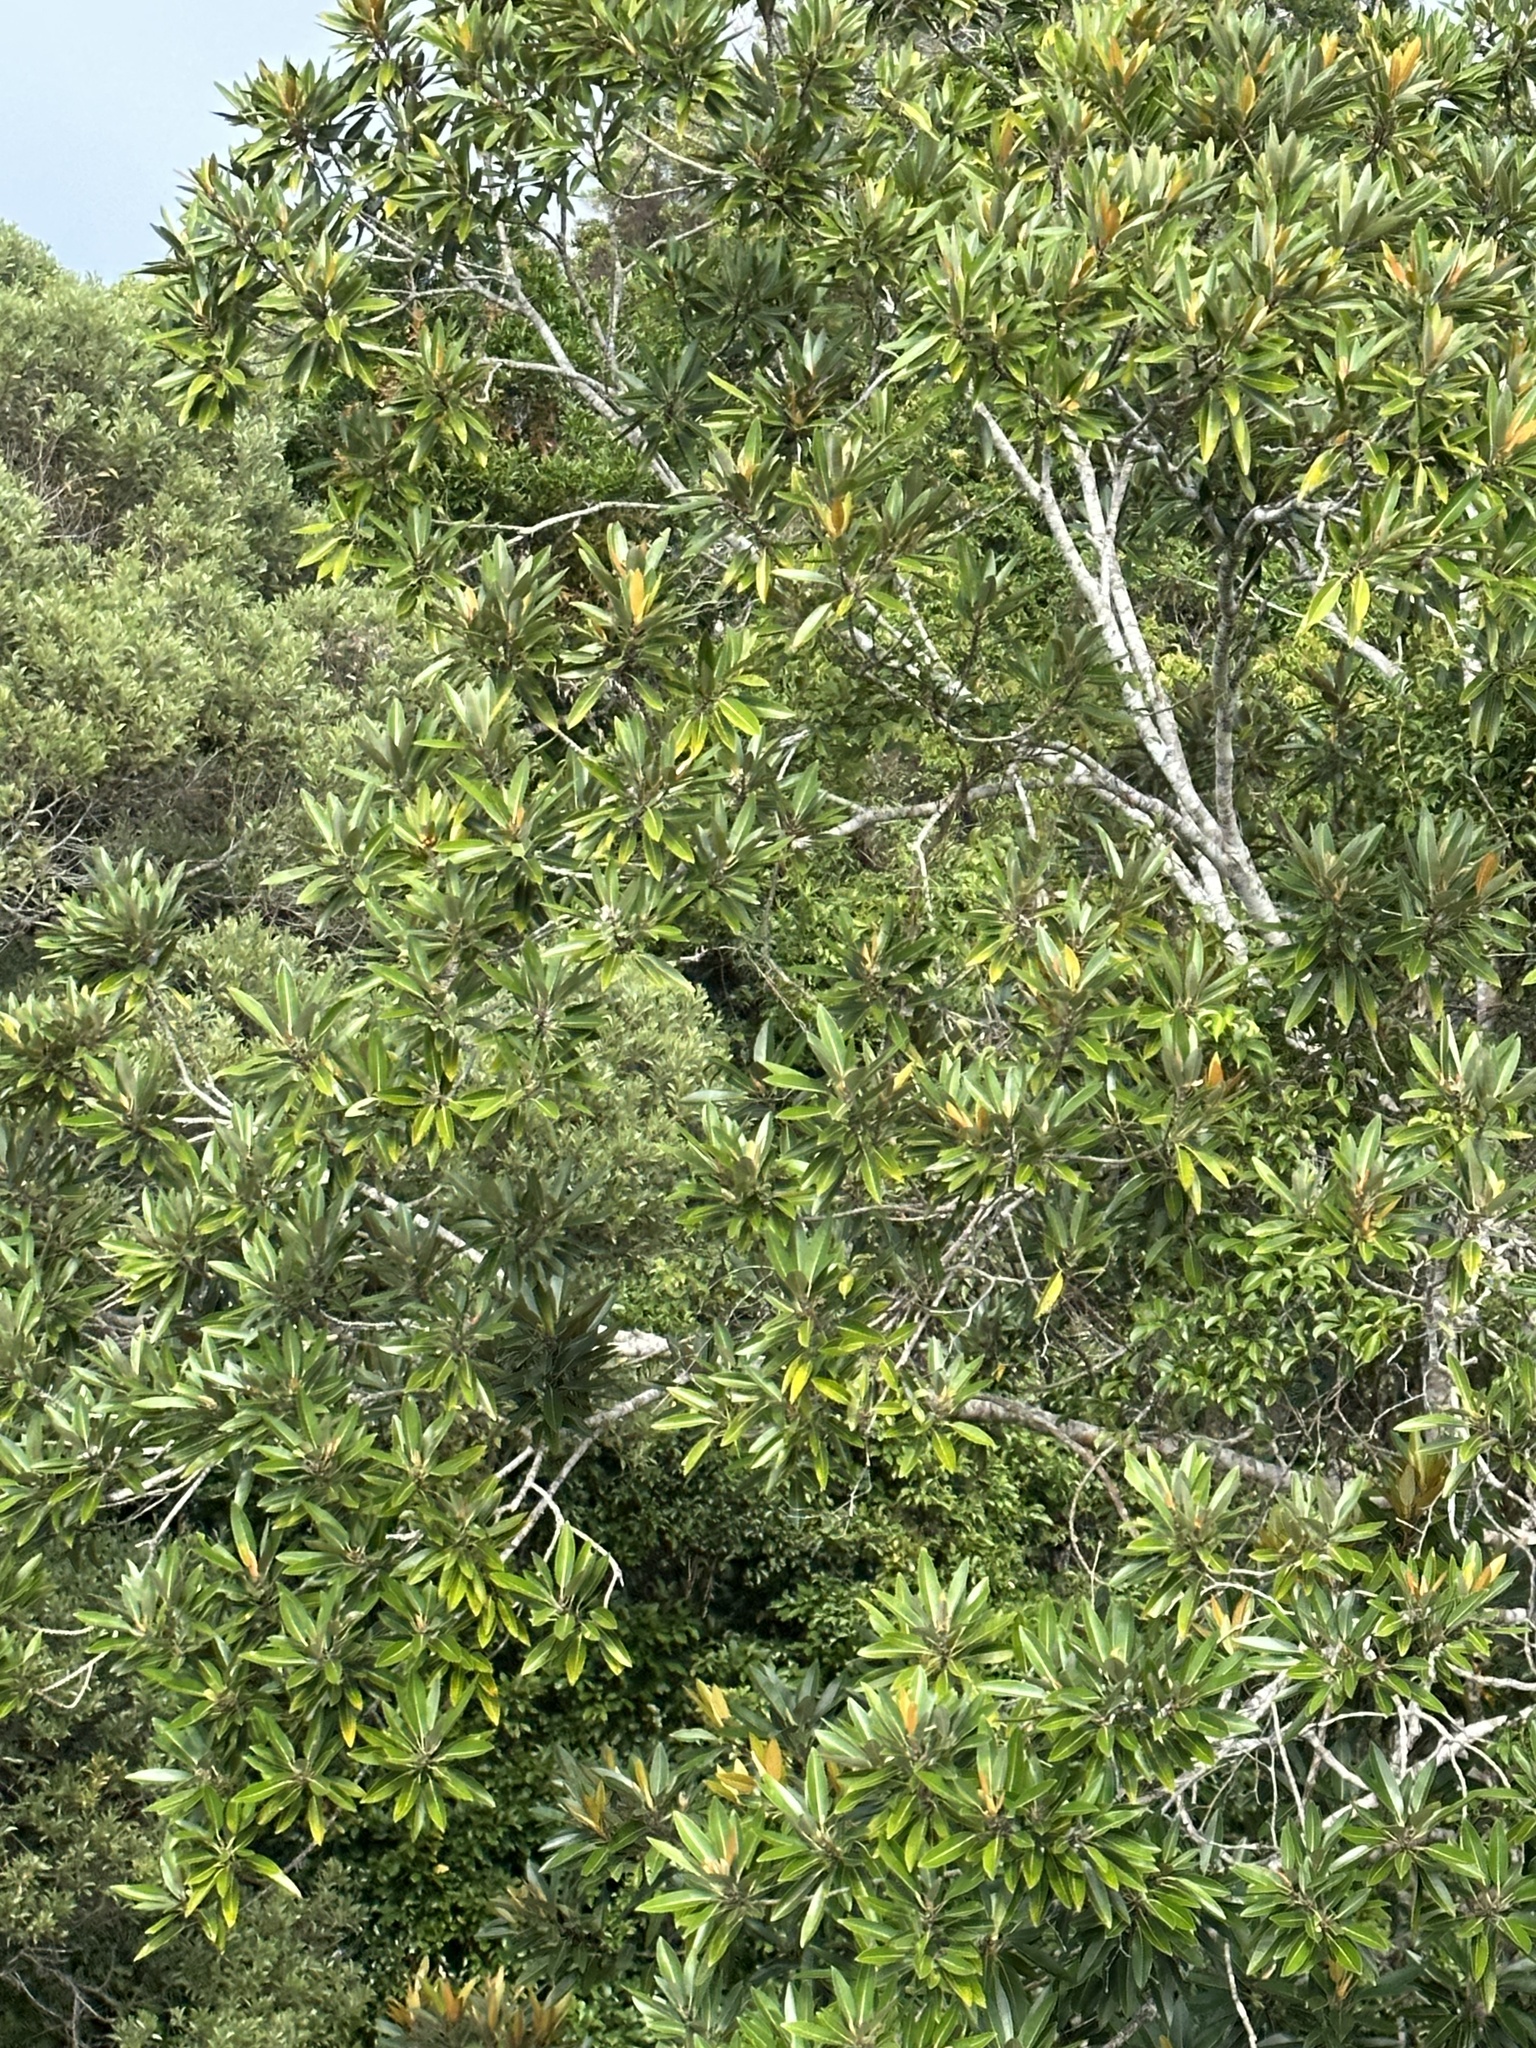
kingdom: Plantae
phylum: Tracheophyta
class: Magnoliopsida
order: Rosales
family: Moraceae
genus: Ficus
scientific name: Ficus destruens
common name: Strangler fig
